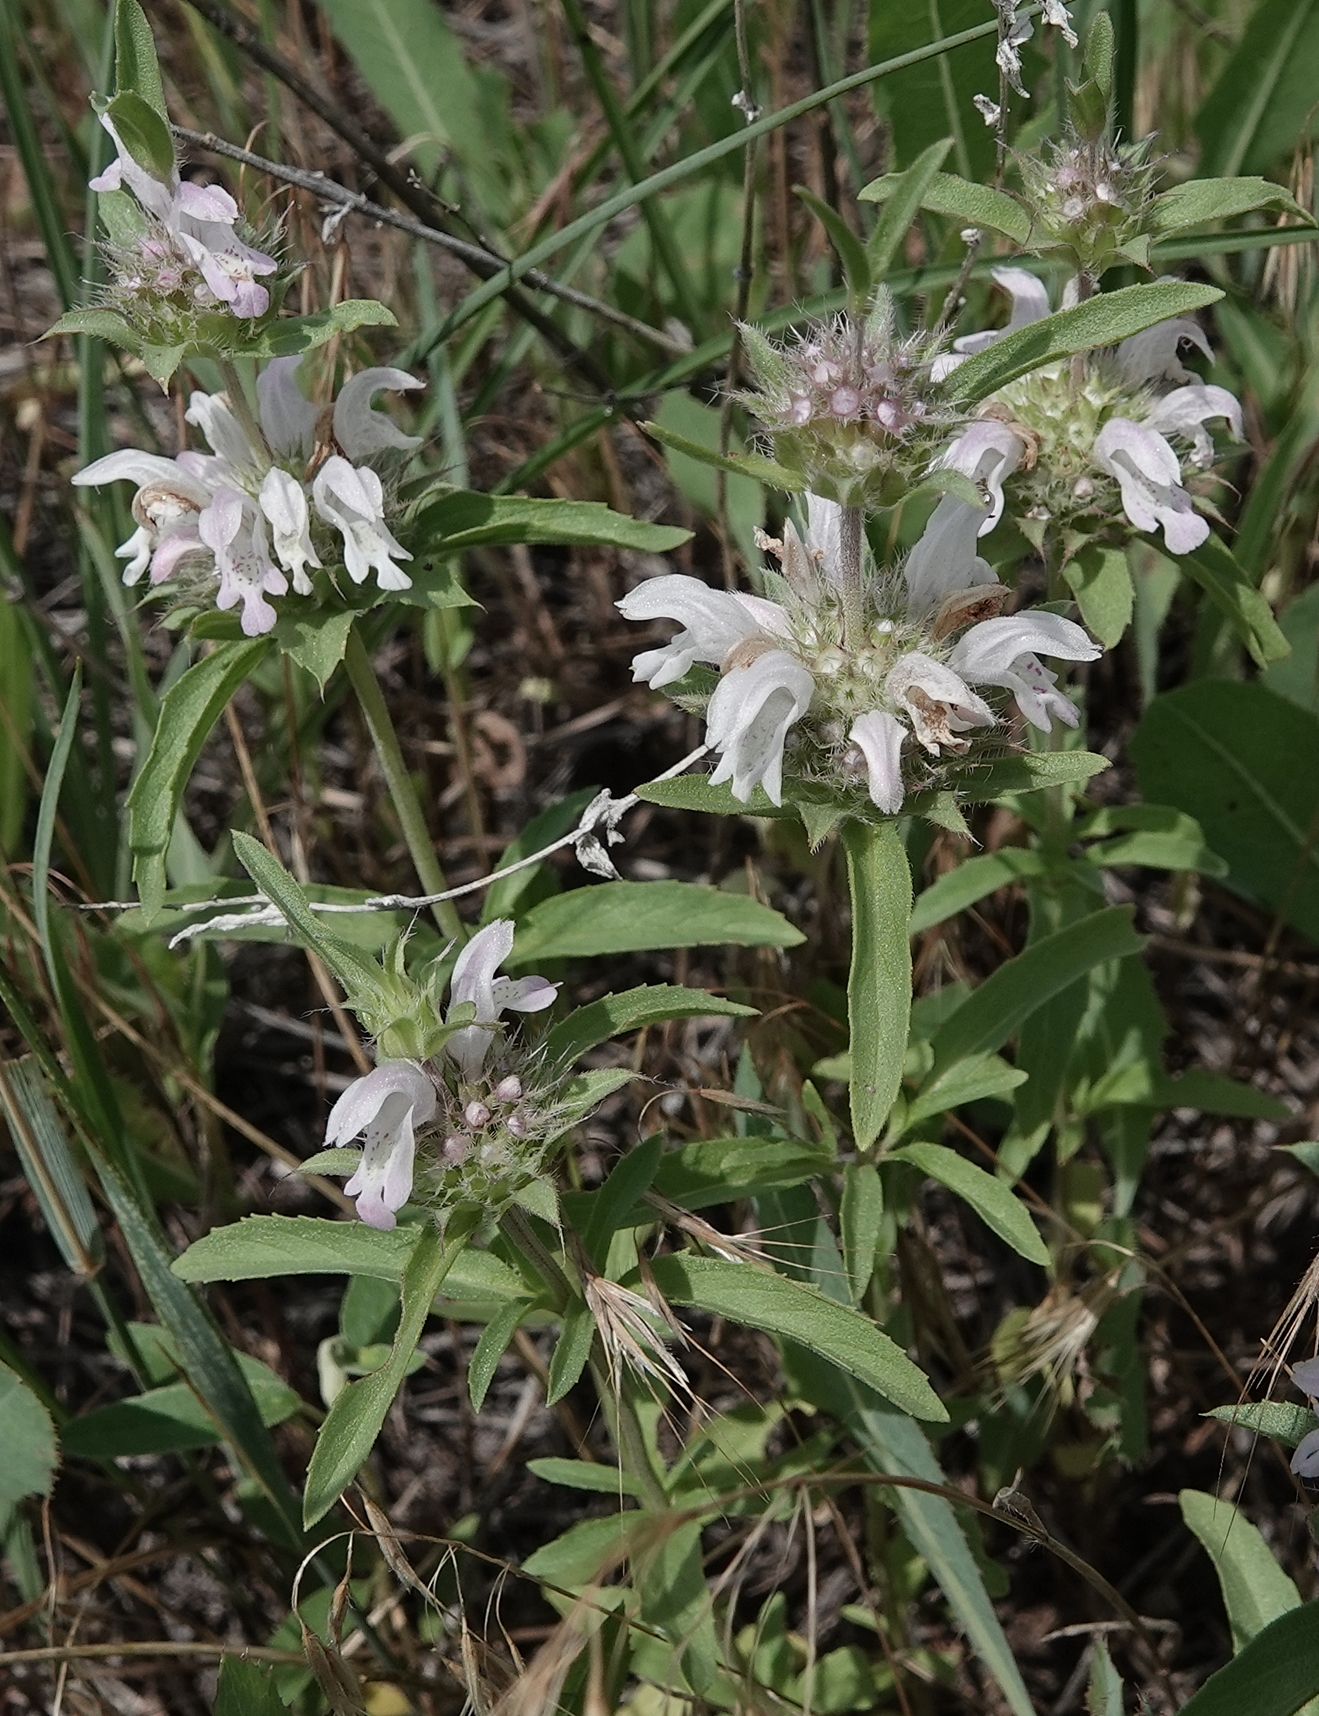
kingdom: Plantae
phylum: Tracheophyta
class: Magnoliopsida
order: Lamiales
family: Lamiaceae
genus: Monarda
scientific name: Monarda pectinata
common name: Plains beebalm
